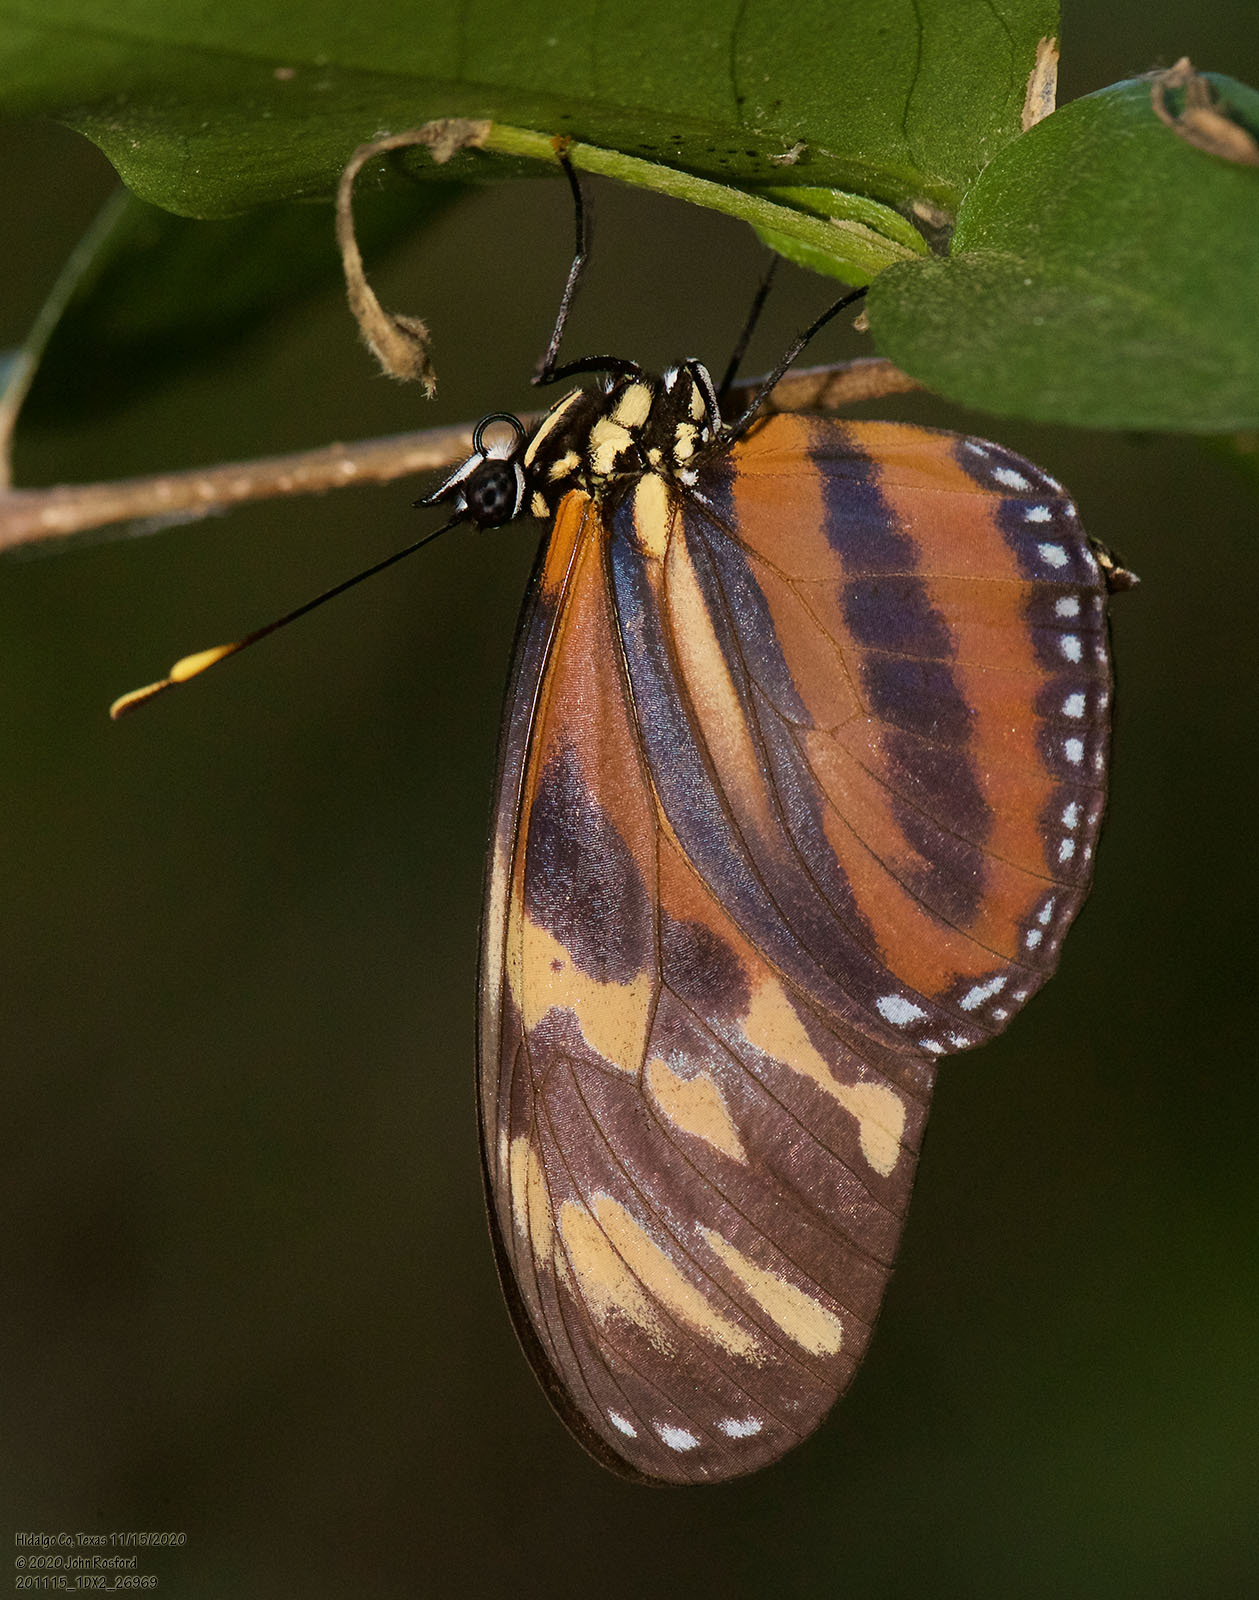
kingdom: Animalia
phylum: Arthropoda
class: Insecta
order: Lepidoptera
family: Nymphalidae
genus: Eueides
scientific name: Eueides isabella
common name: Isabella's longwing
